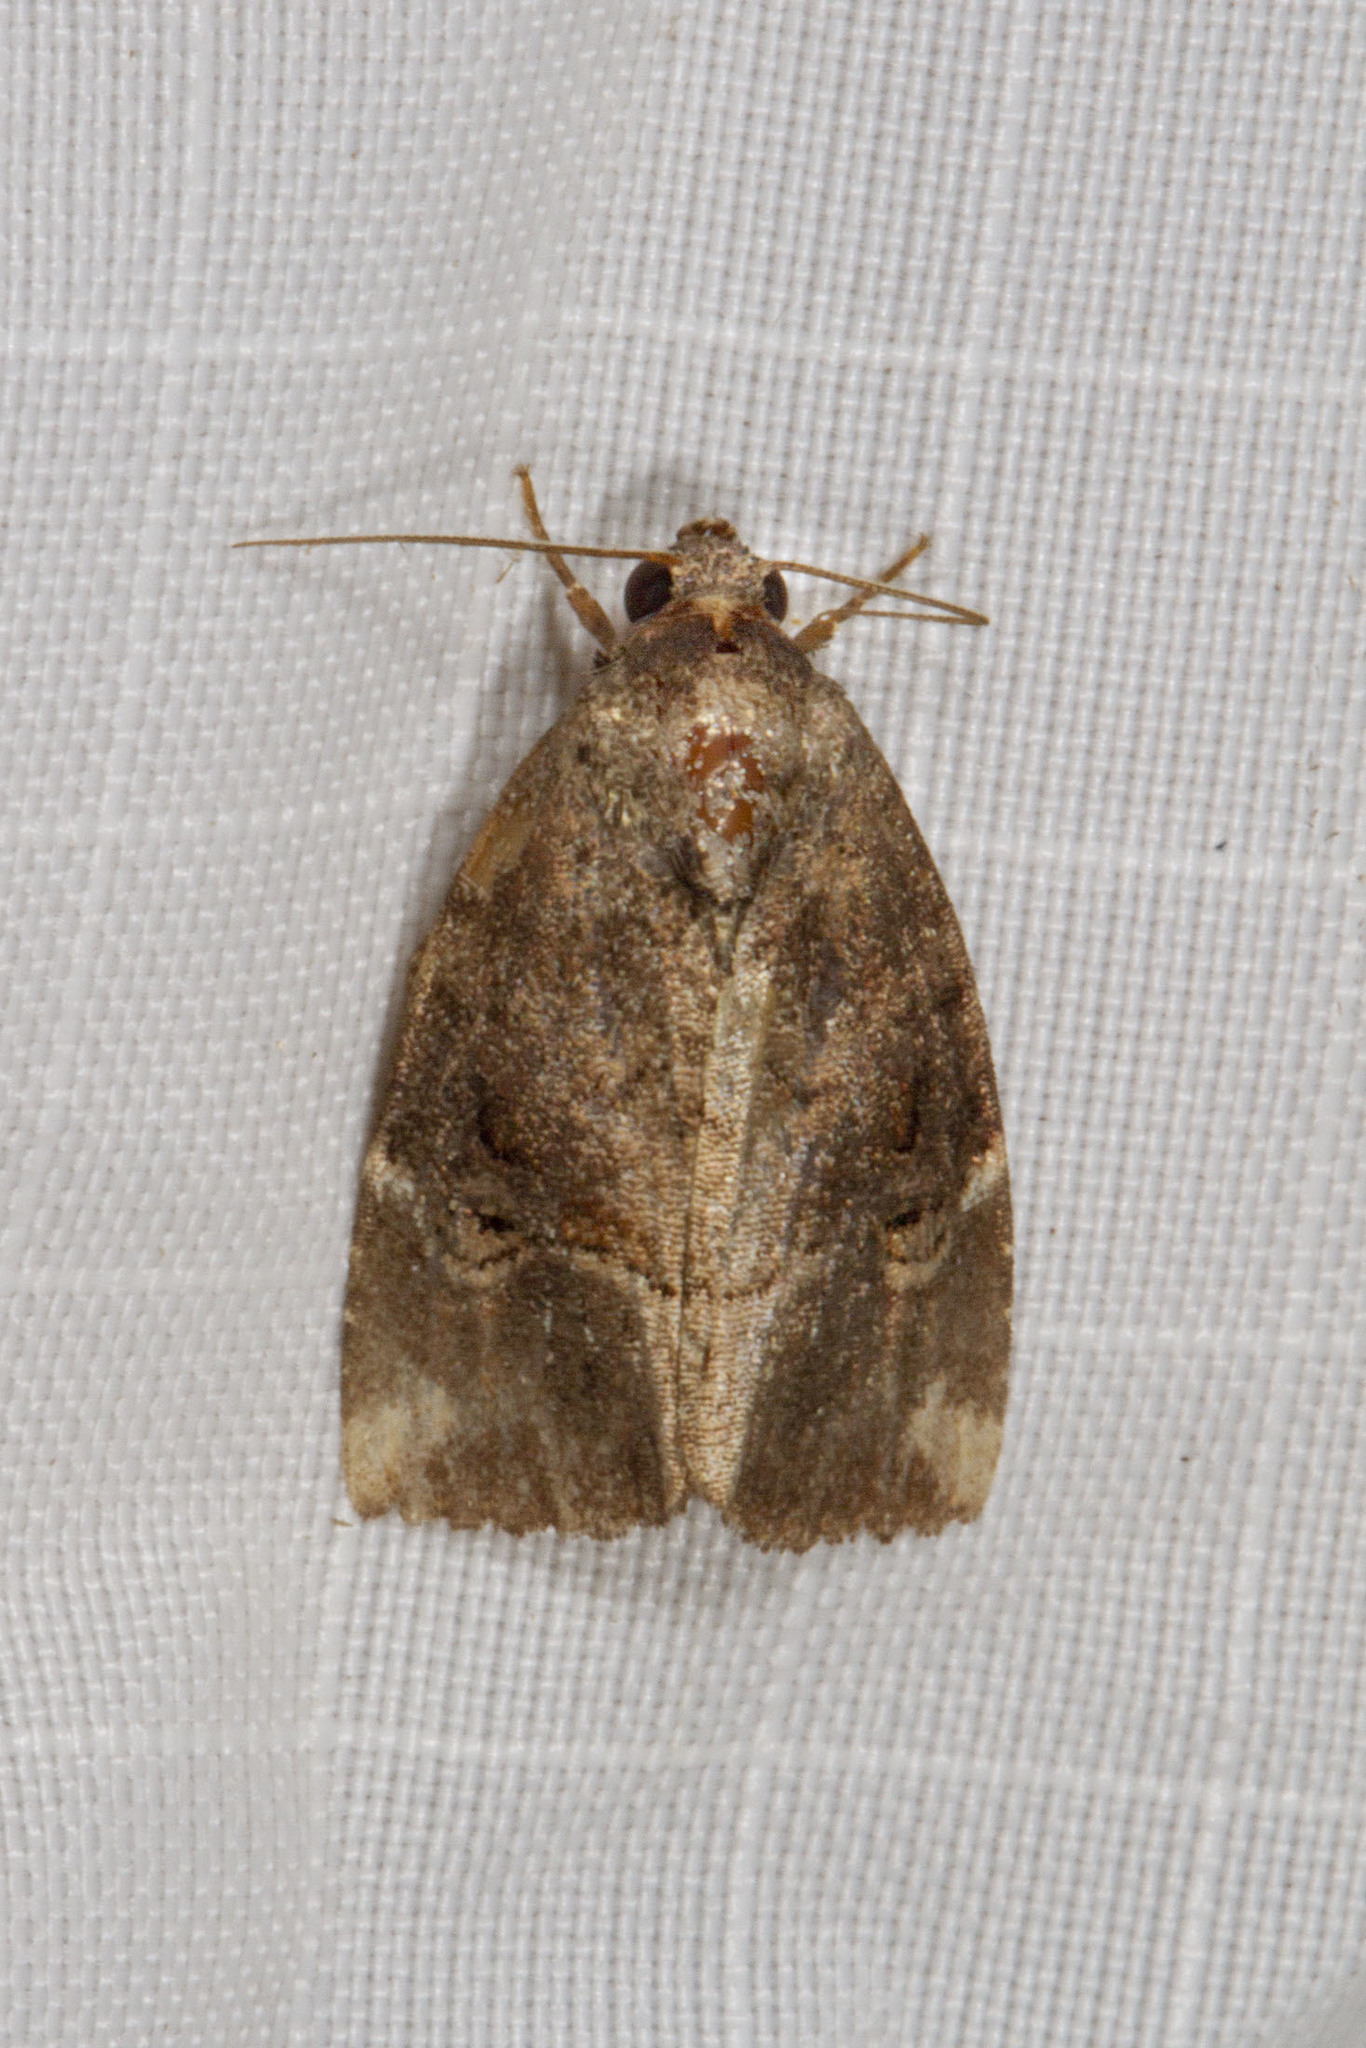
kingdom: Animalia
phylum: Arthropoda
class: Insecta
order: Lepidoptera
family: Noctuidae
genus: Elaphria
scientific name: Elaphria versicolor
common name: Fir harlequin
